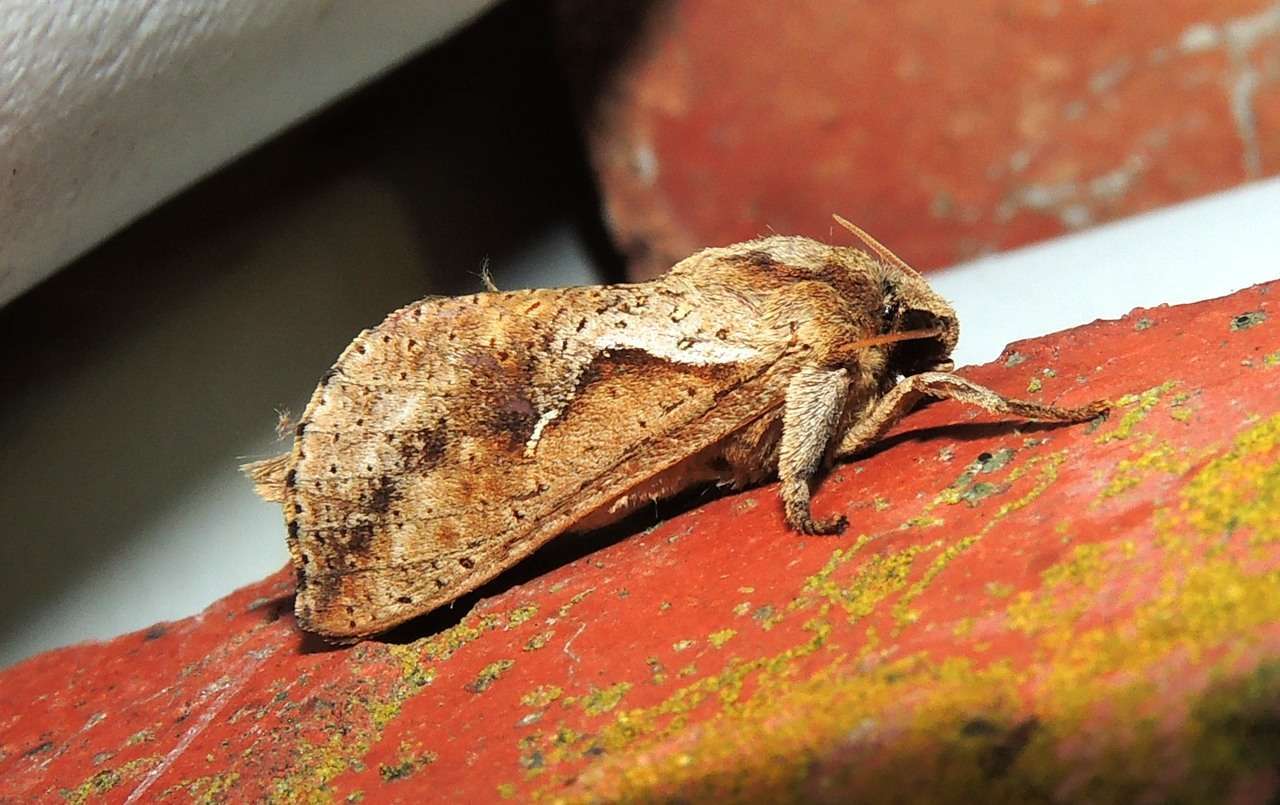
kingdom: Animalia
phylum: Arthropoda
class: Insecta
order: Lepidoptera
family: Hepialidae
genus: Elhamma
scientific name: Elhamma australasiae
